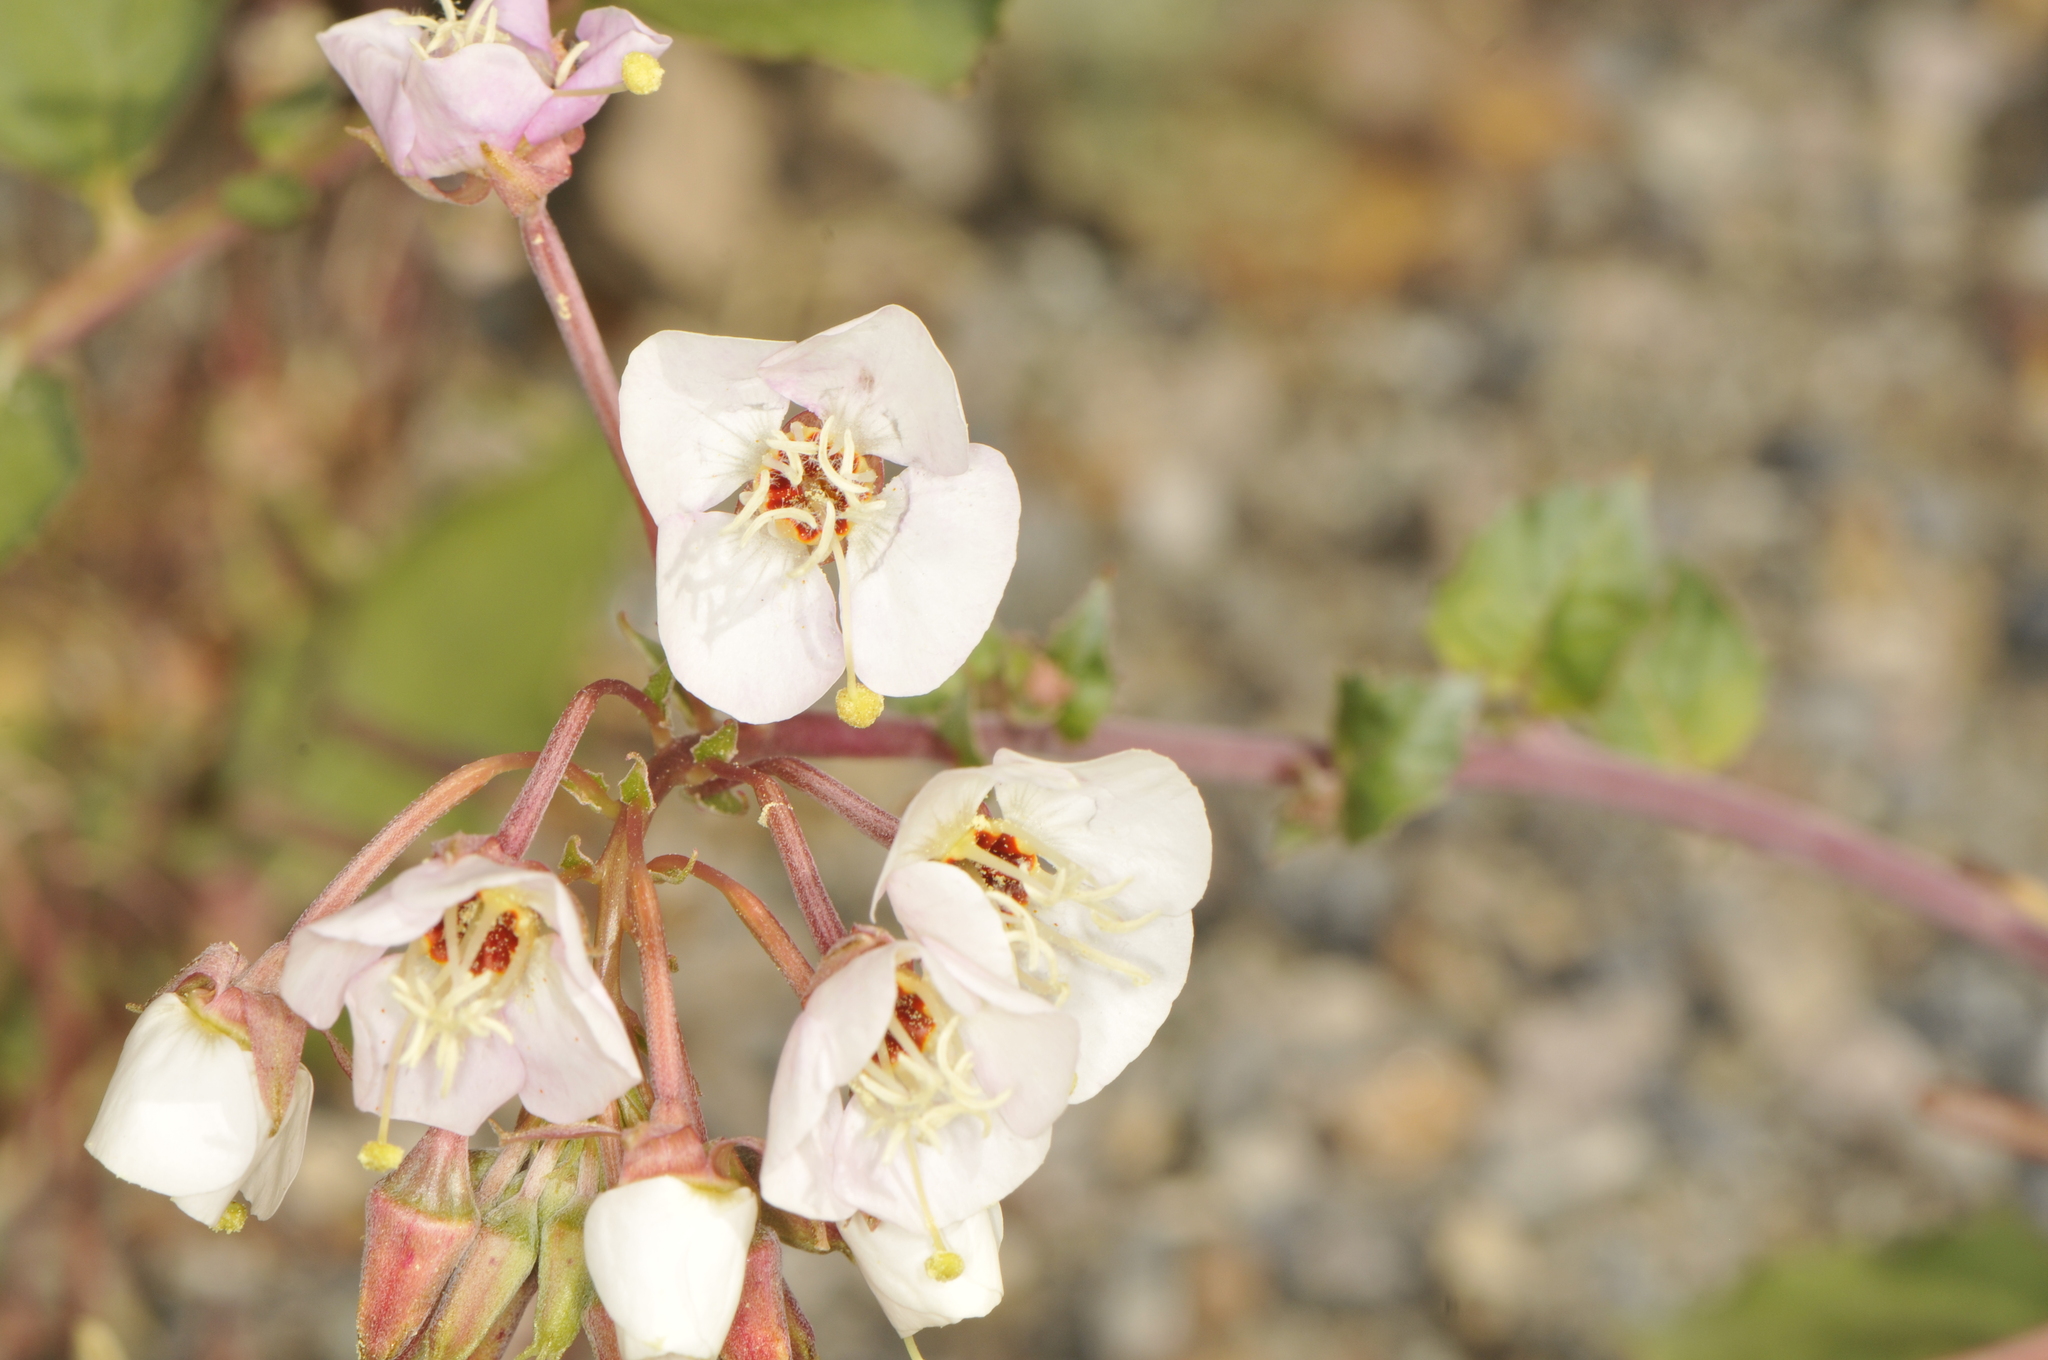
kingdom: Plantae
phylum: Tracheophyta
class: Magnoliopsida
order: Myrtales
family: Onagraceae
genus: Chylismia
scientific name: Chylismia claviformis
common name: Browneyes
